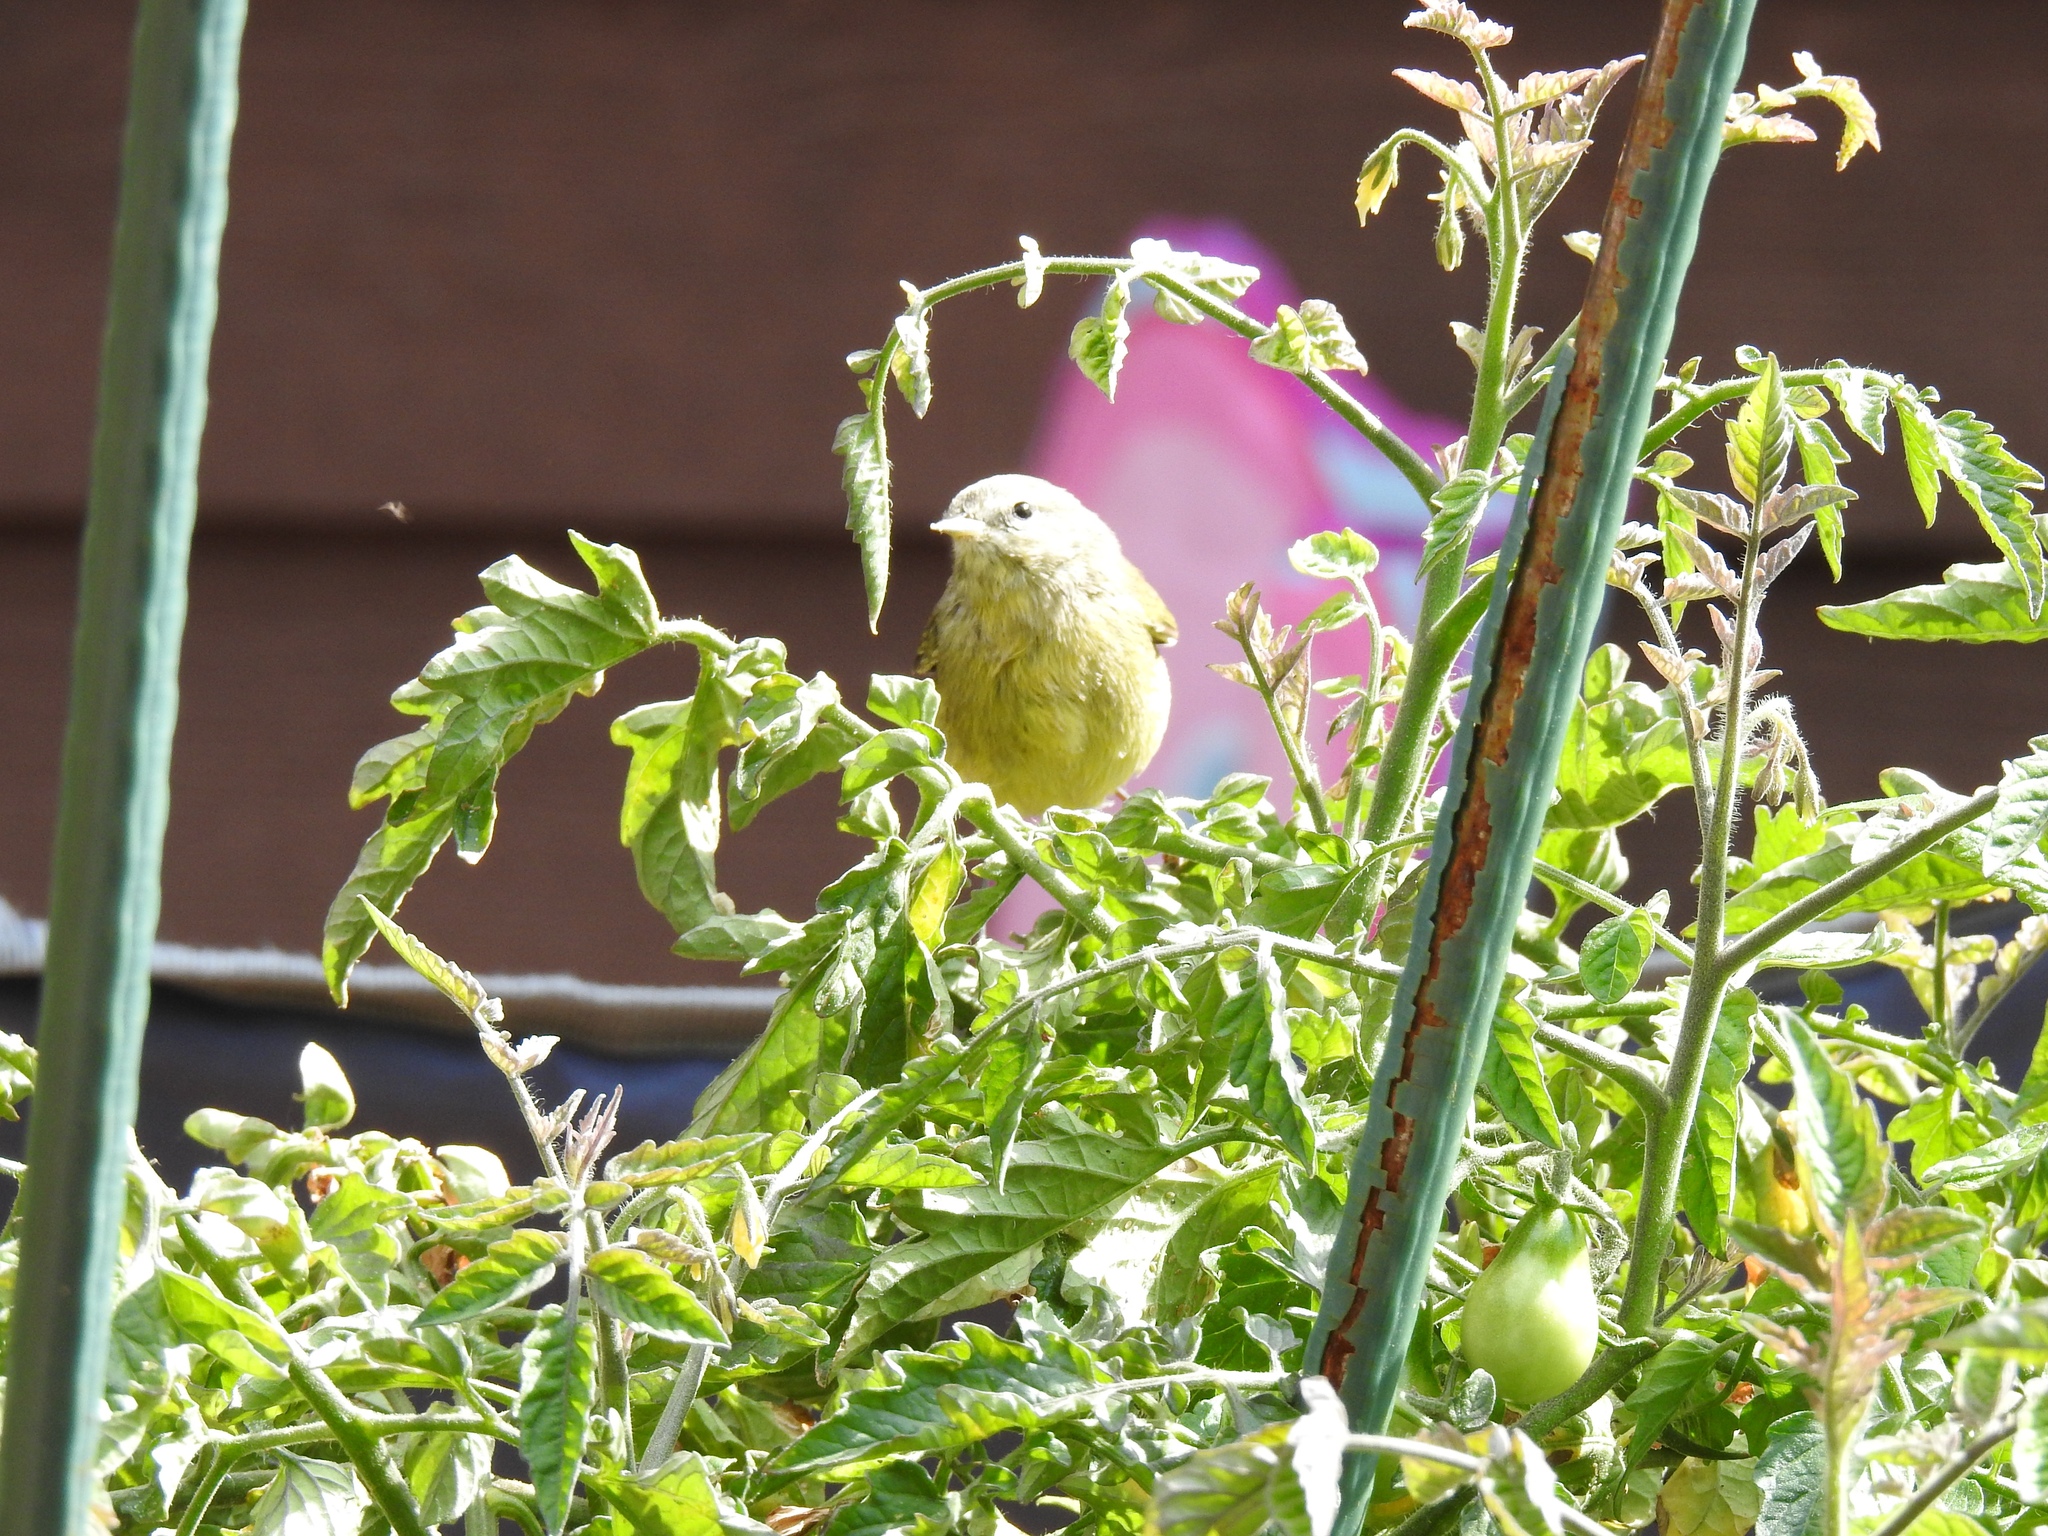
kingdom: Animalia
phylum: Chordata
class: Aves
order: Passeriformes
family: Parulidae
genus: Leiothlypis
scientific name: Leiothlypis celata
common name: Orange-crowned warbler
